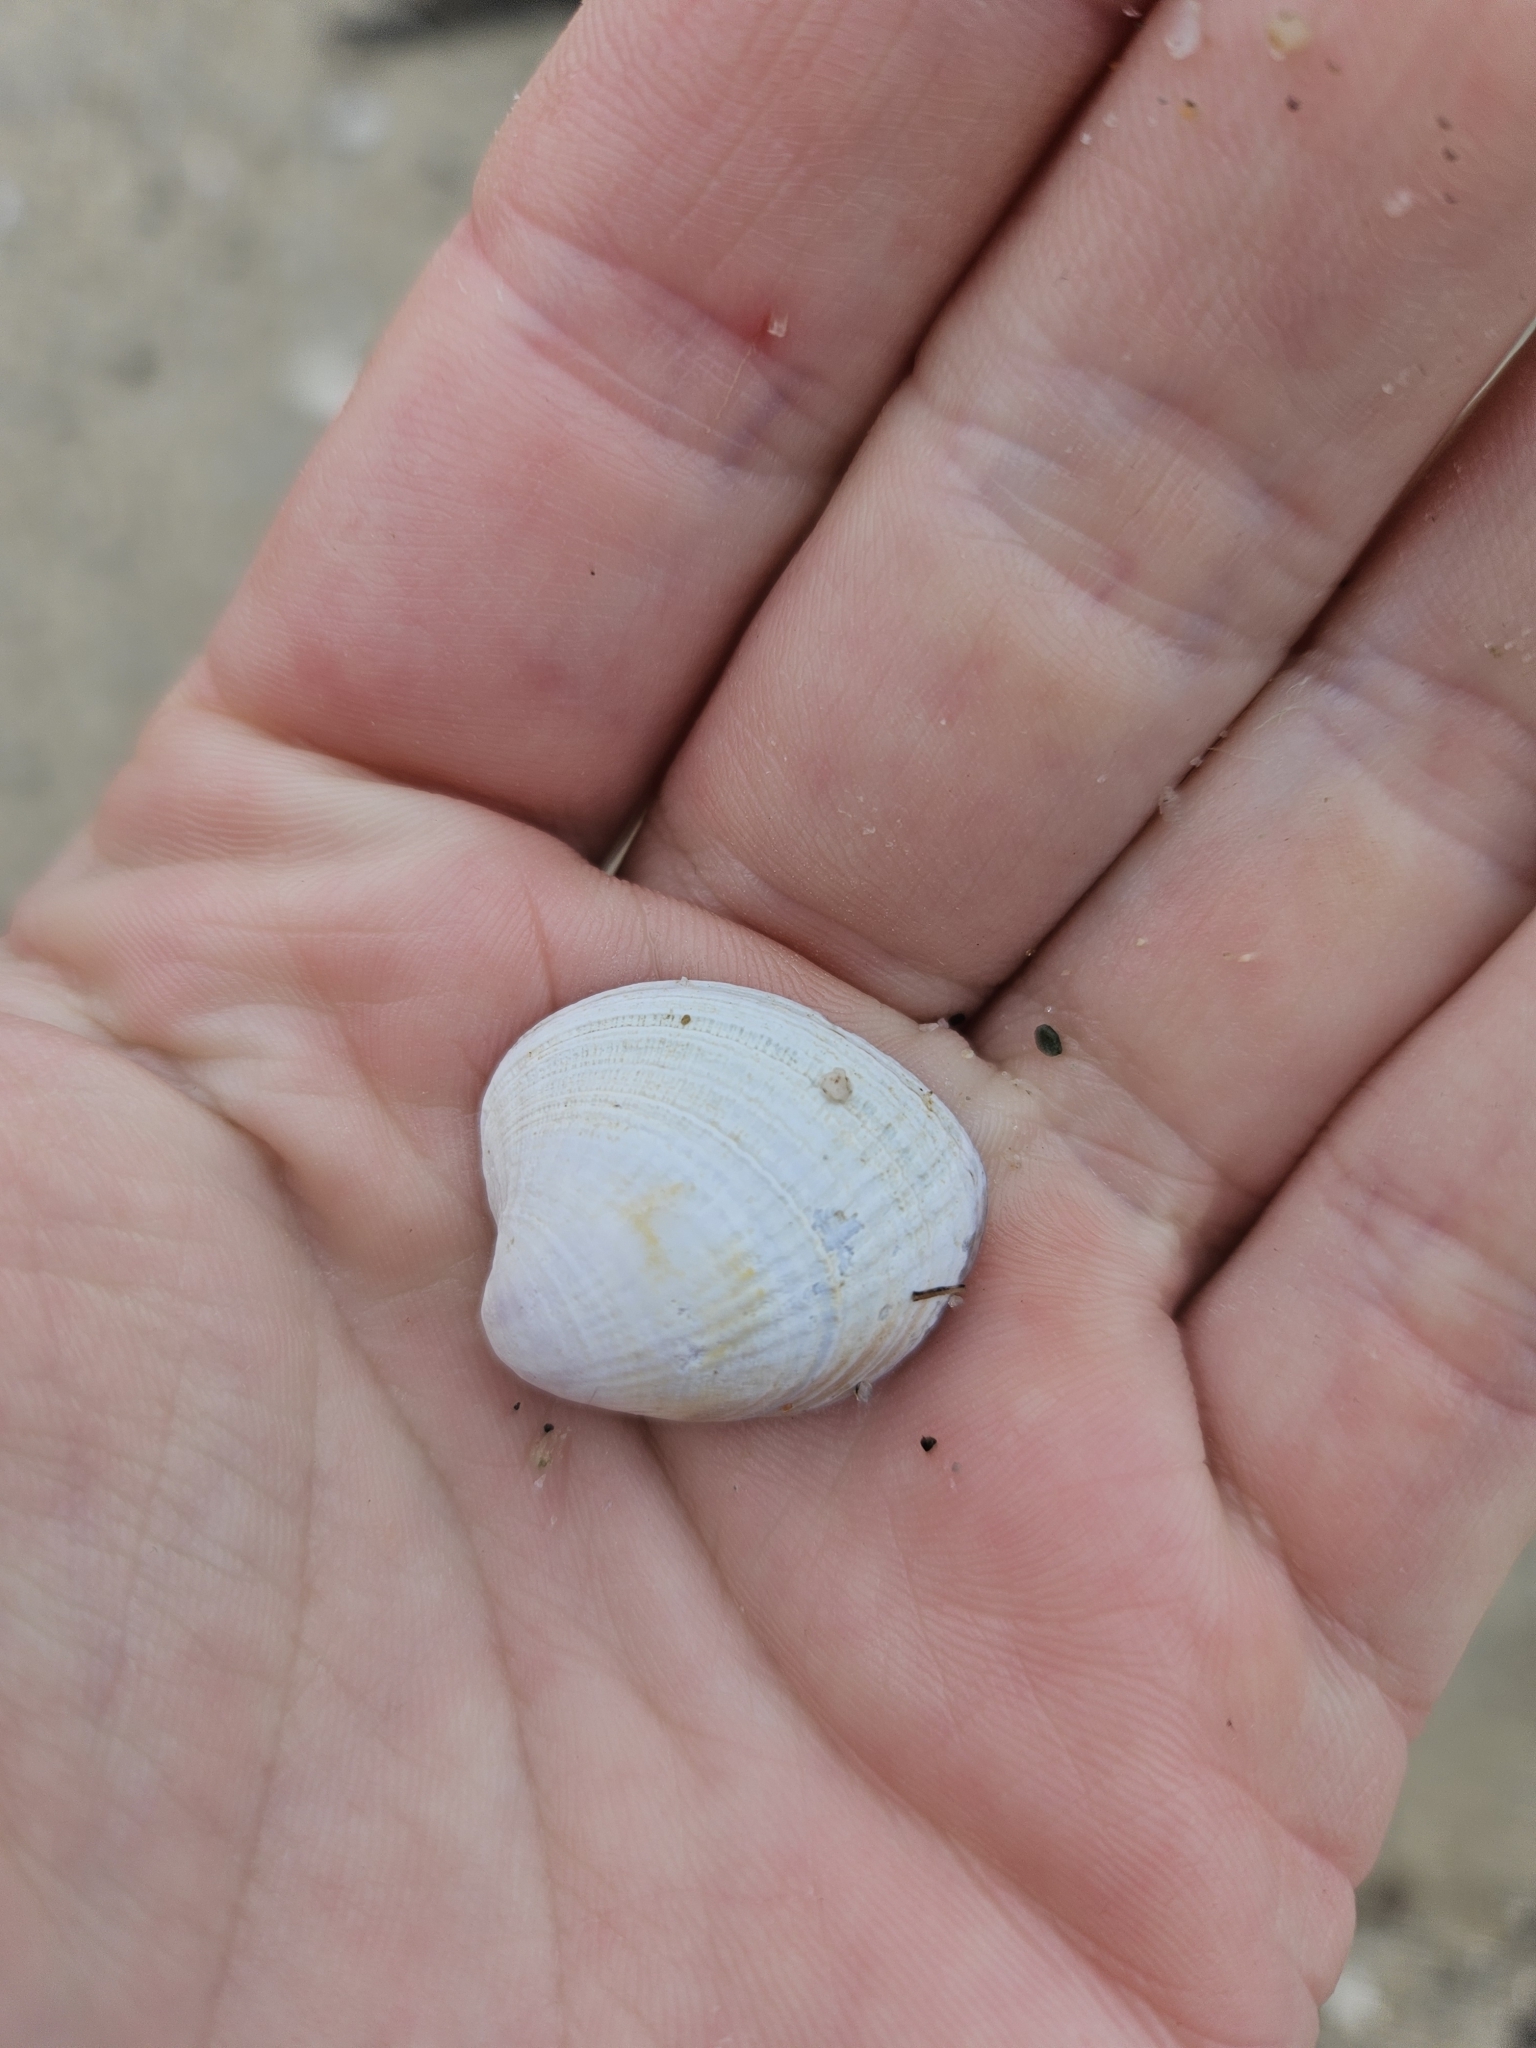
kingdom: Animalia
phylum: Mollusca
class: Bivalvia
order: Venerida
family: Veneridae
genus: Austrovenus
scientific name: Austrovenus stutchburyi
